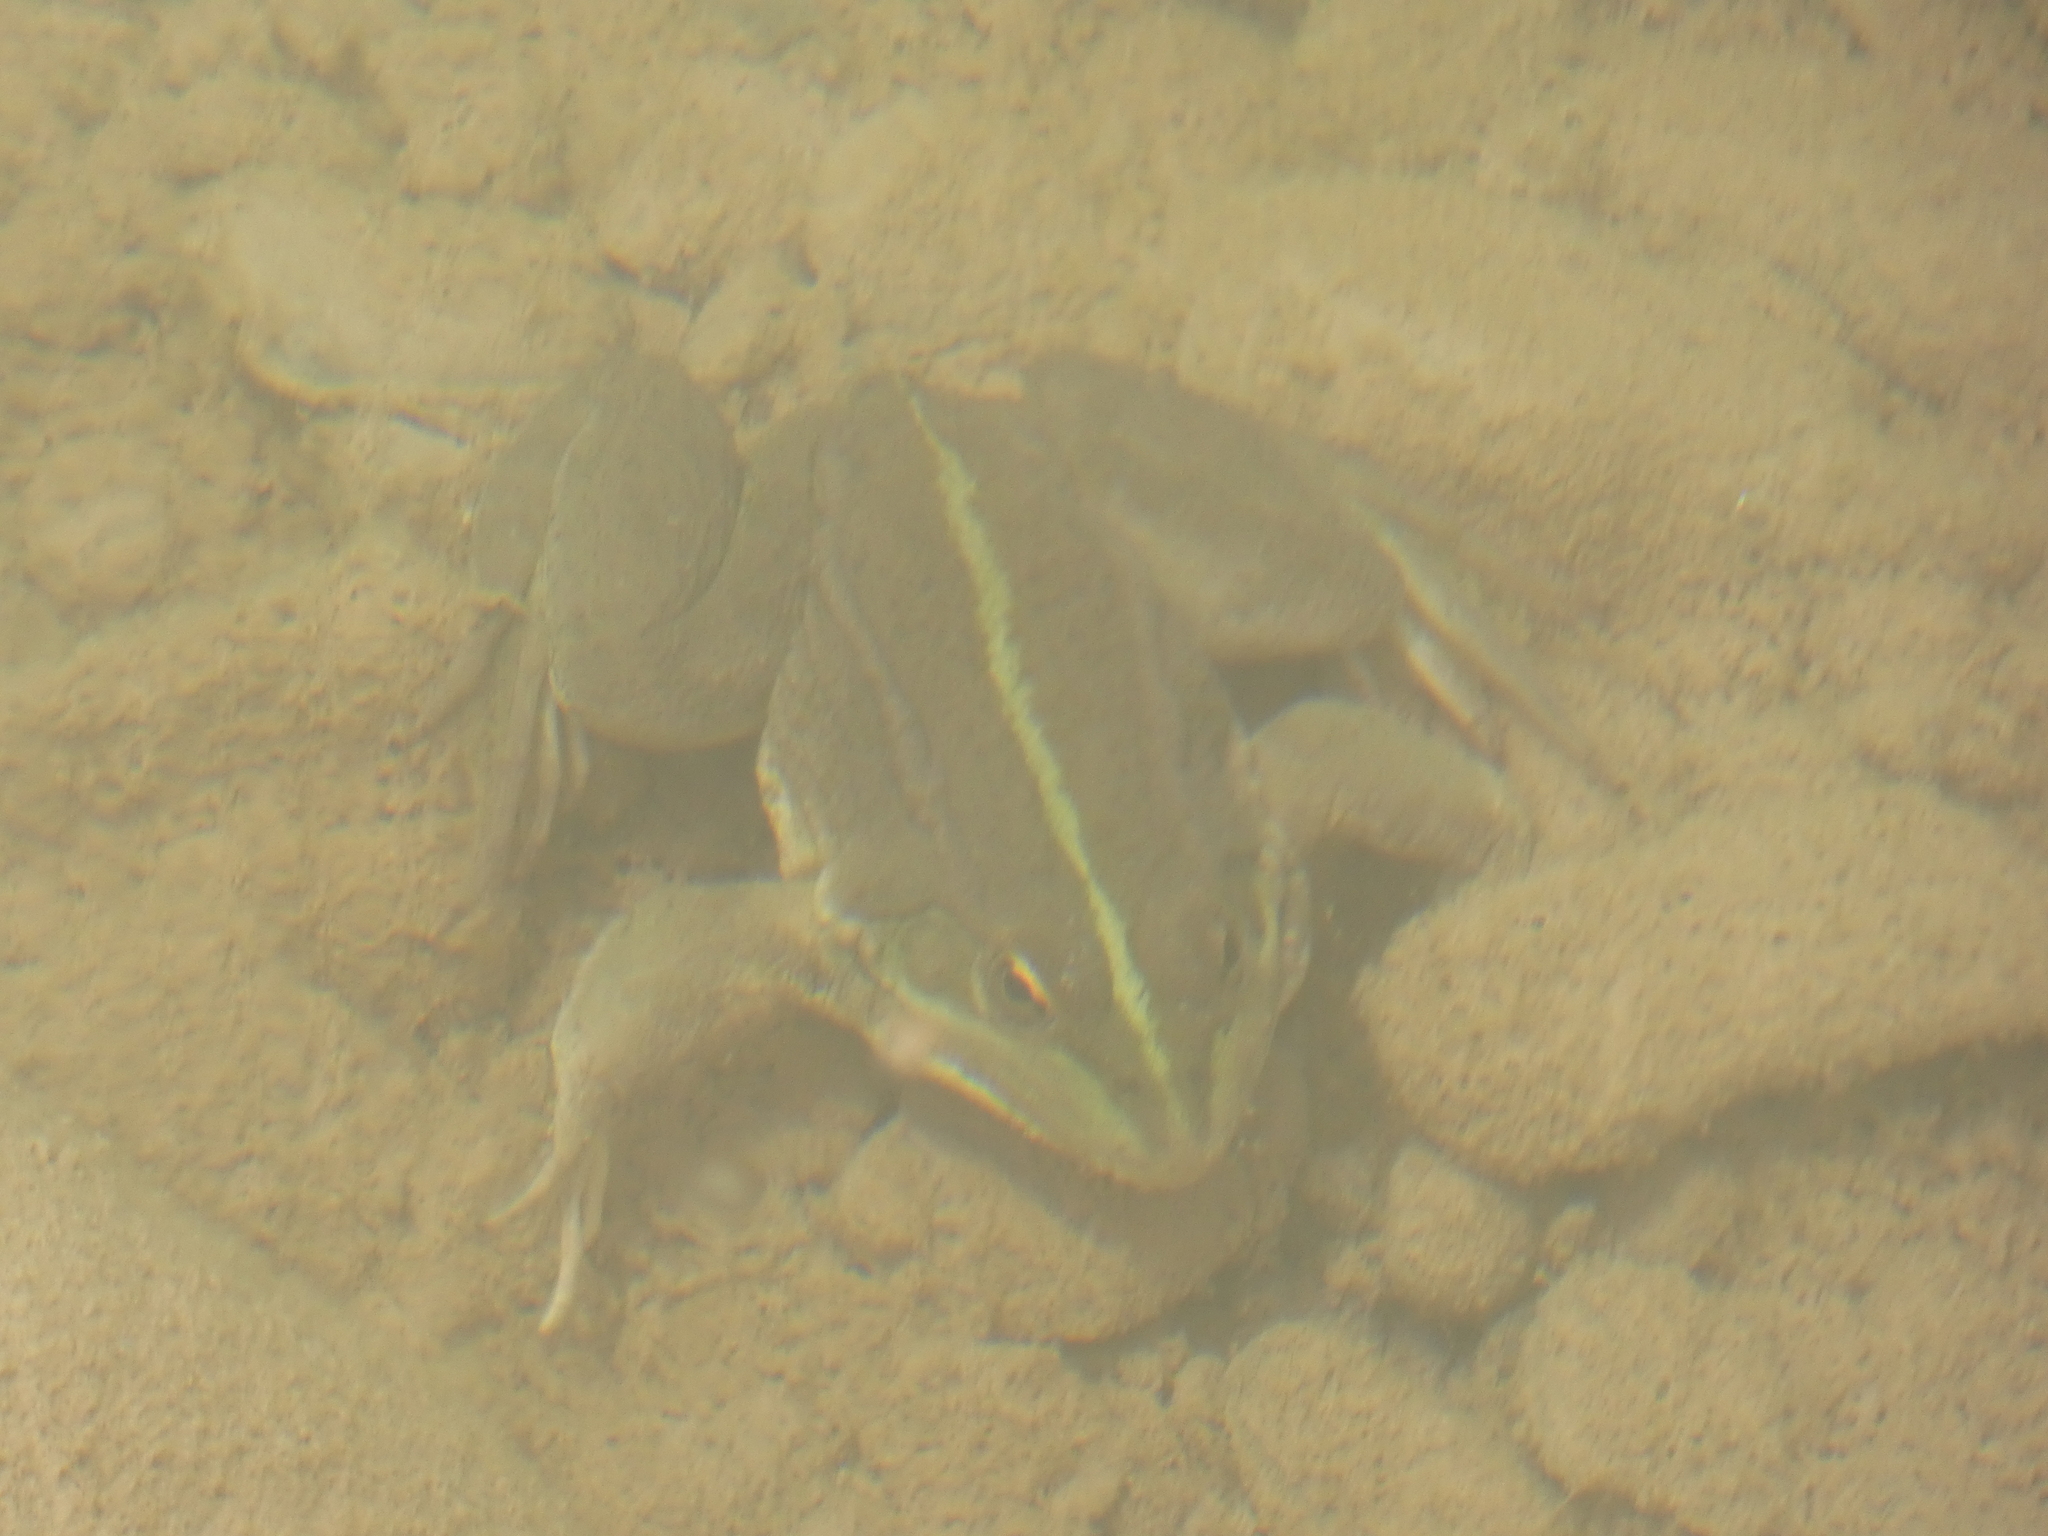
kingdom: Animalia
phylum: Chordata
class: Amphibia
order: Anura
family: Ranidae
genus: Pelophylax
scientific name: Pelophylax saharicus
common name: Sahara frog
